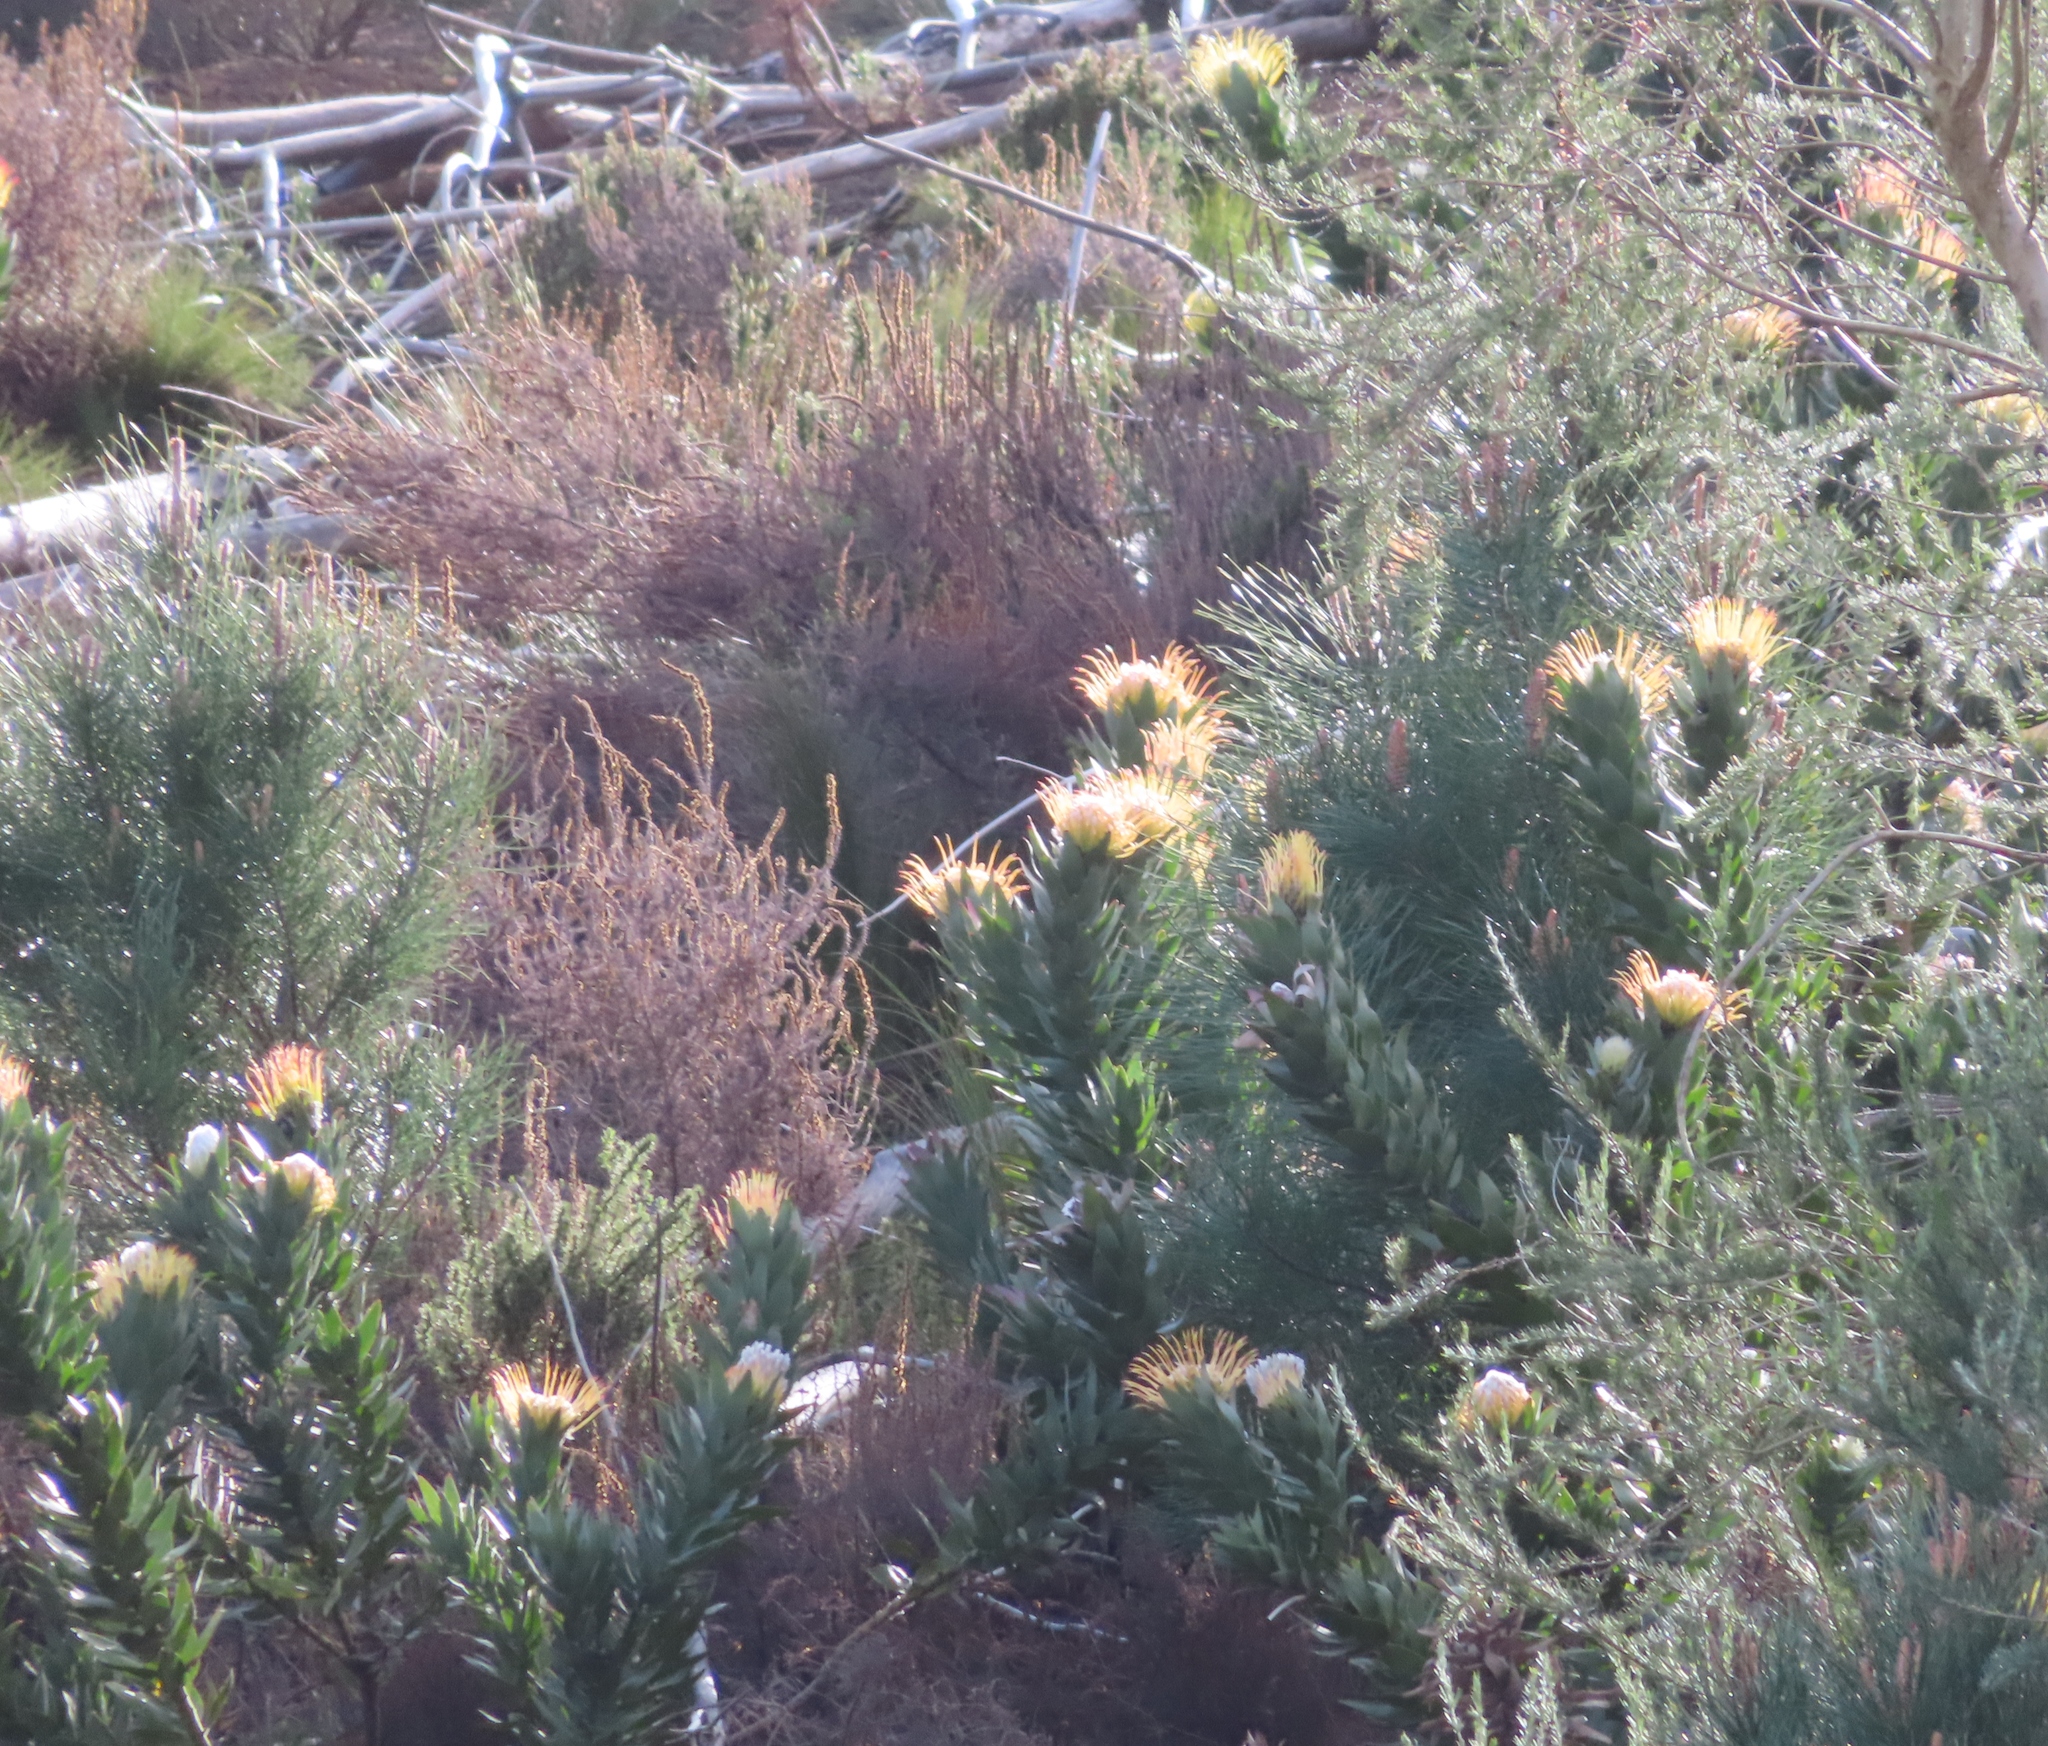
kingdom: Plantae
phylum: Tracheophyta
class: Magnoliopsida
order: Proteales
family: Proteaceae
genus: Leucospermum
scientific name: Leucospermum gueinzii
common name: Kloof fountain pincushion
